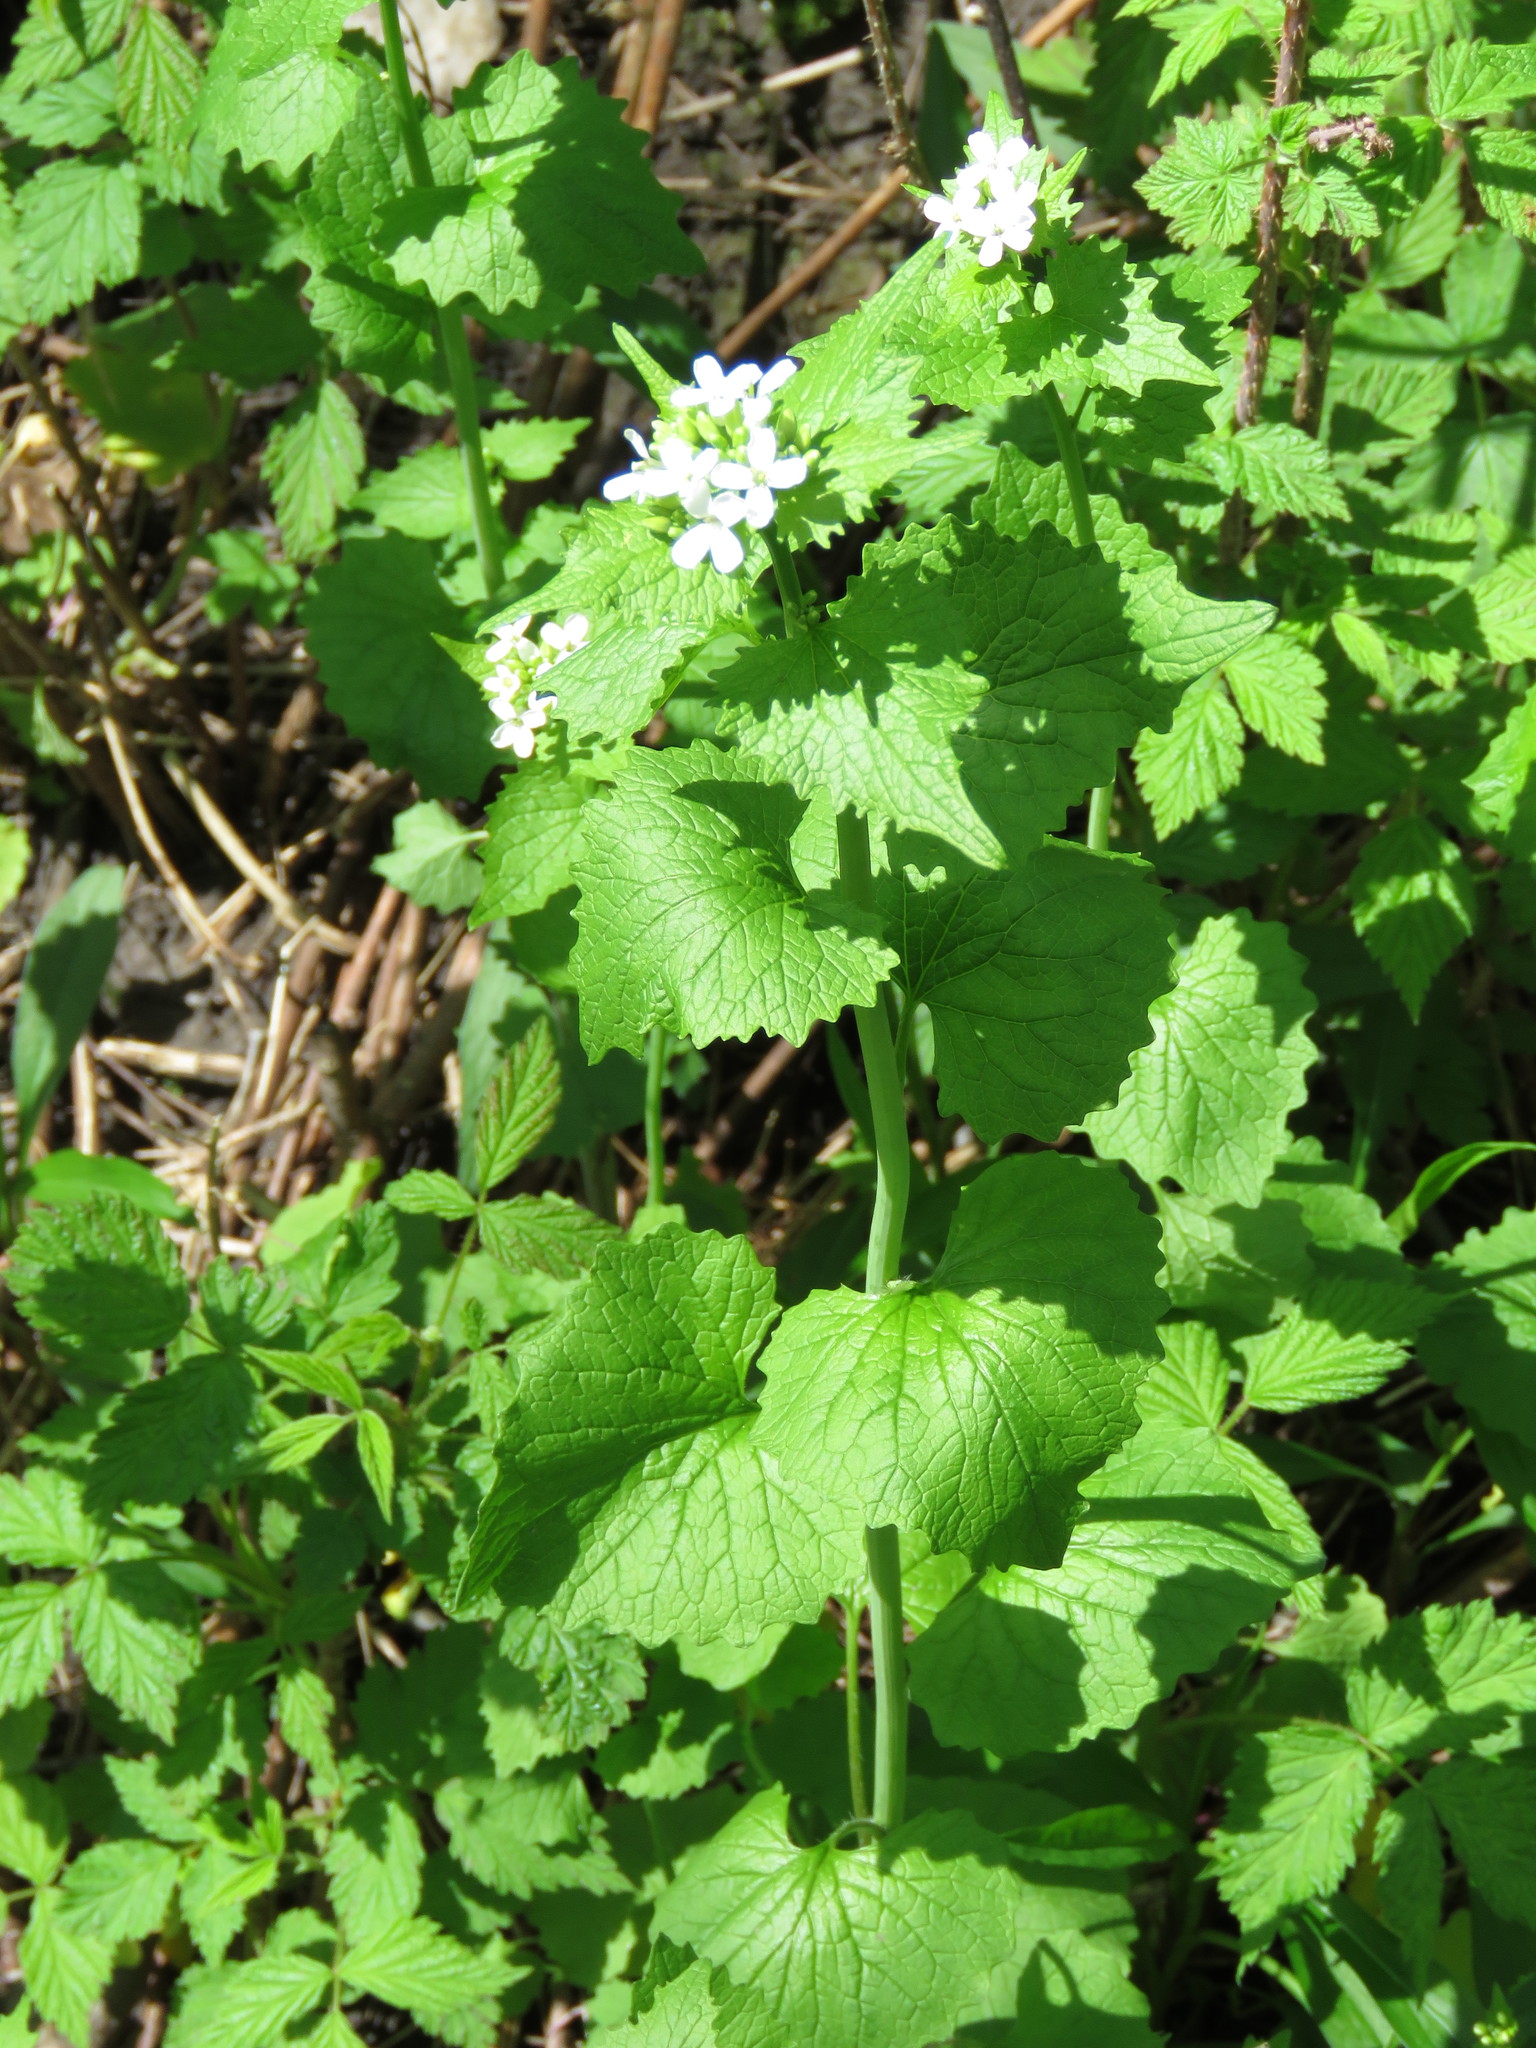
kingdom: Plantae
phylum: Tracheophyta
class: Magnoliopsida
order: Brassicales
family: Brassicaceae
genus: Alliaria
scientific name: Alliaria petiolata
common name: Garlic mustard
